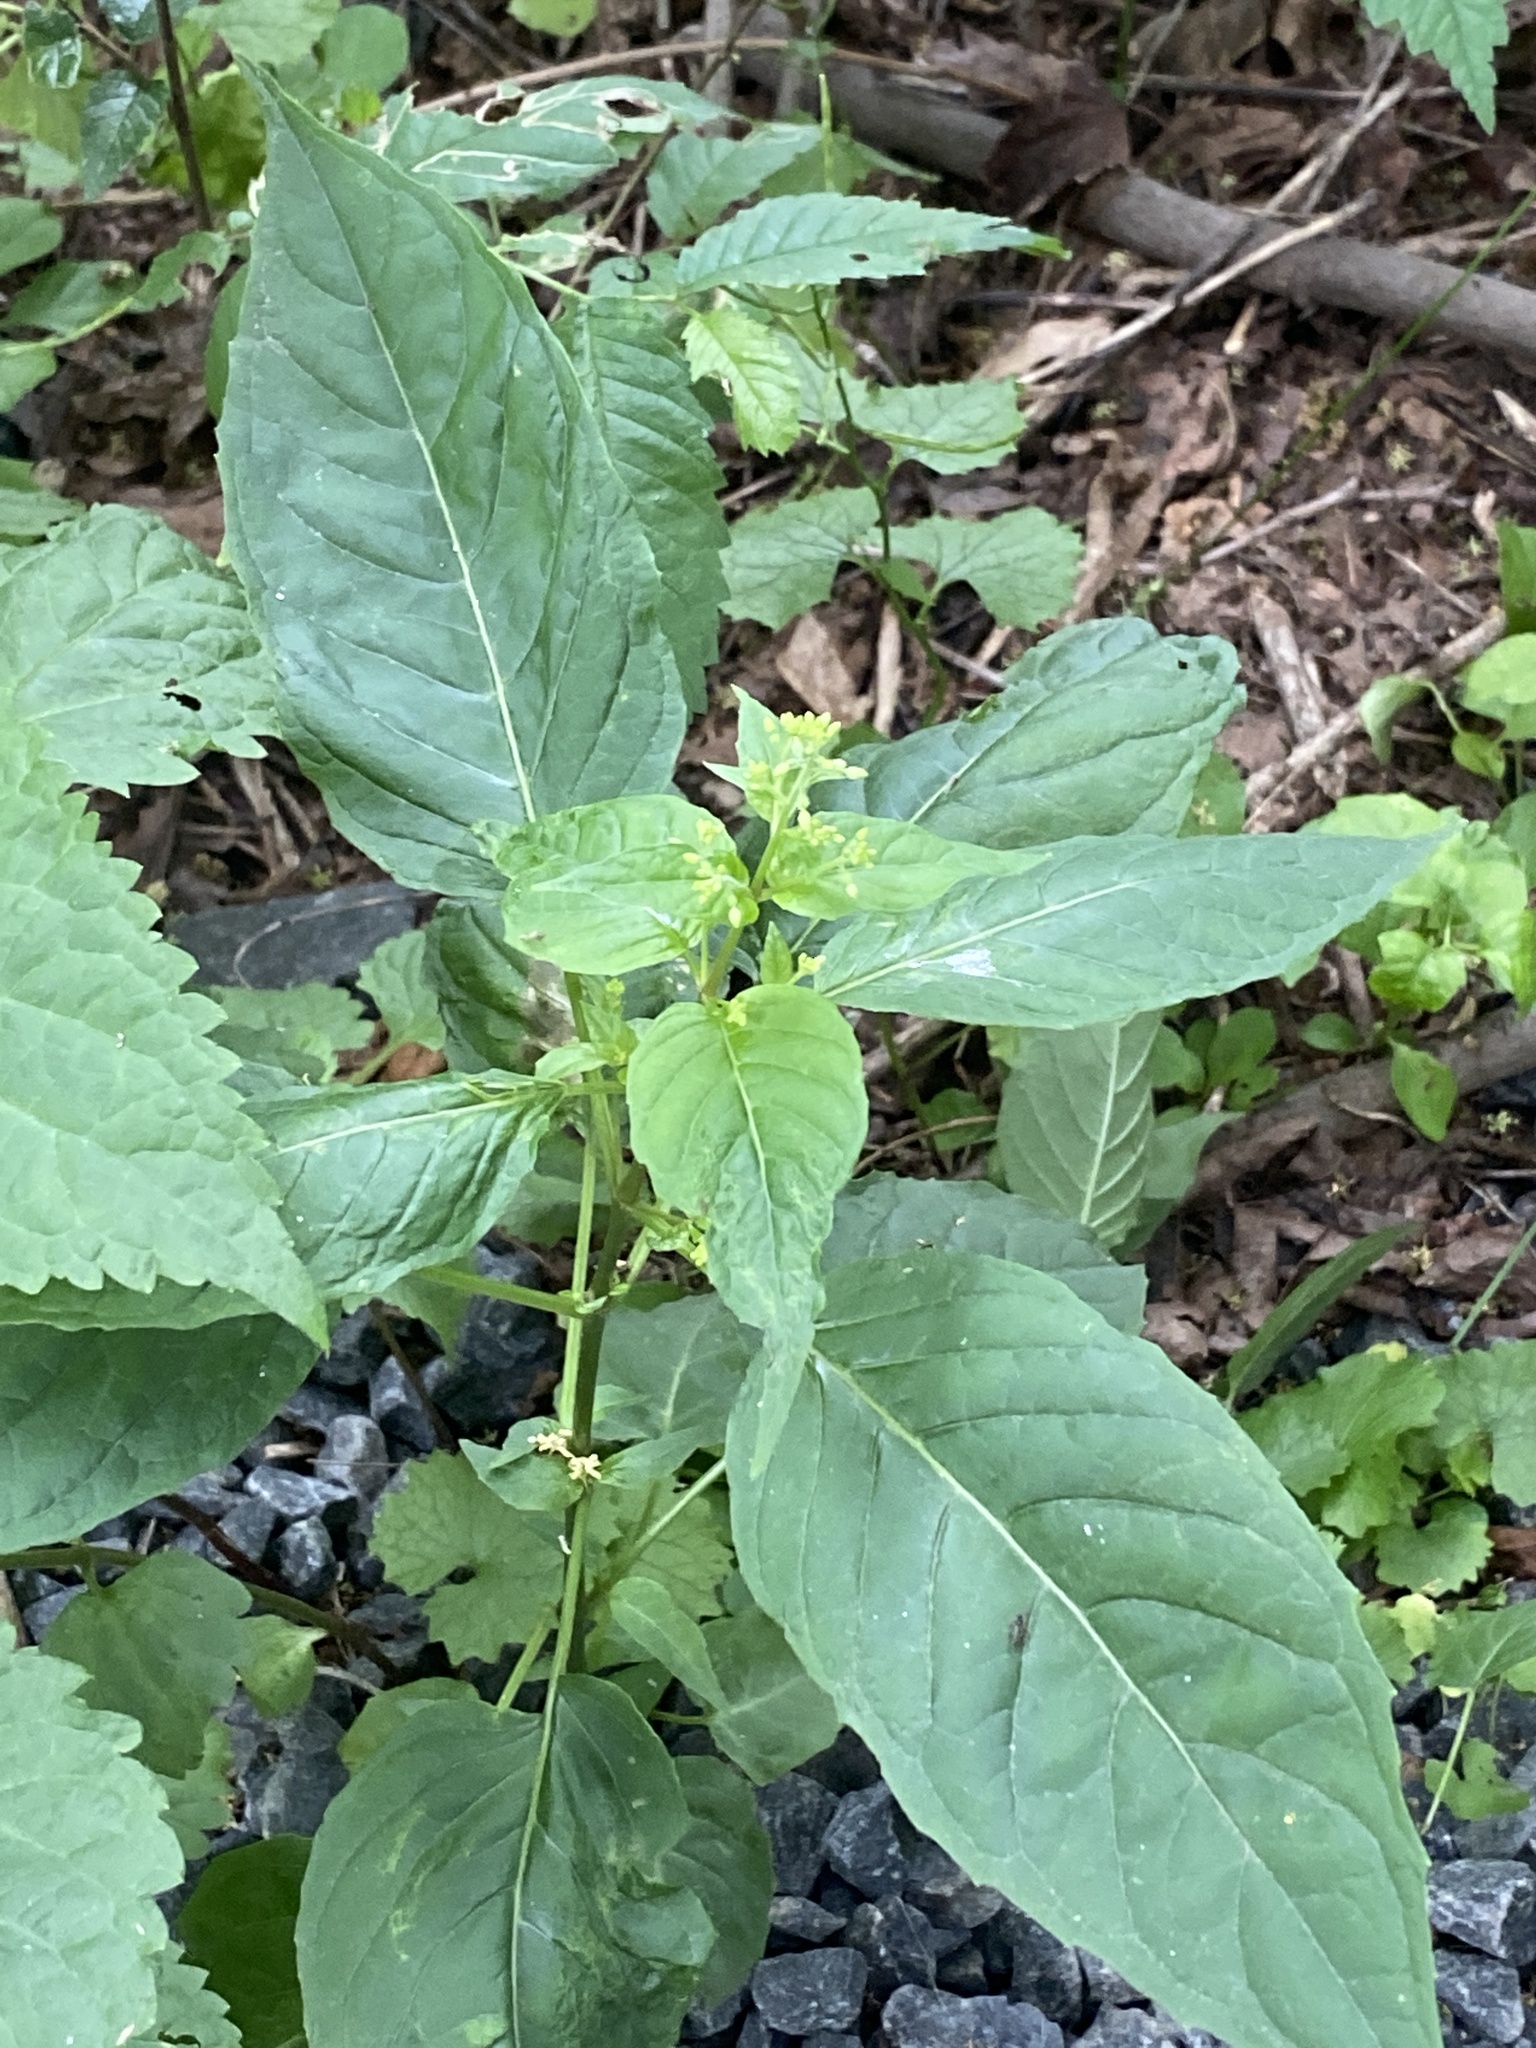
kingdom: Plantae
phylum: Tracheophyta
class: Magnoliopsida
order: Myrtales
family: Onagraceae
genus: Circaea
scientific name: Circaea canadensis
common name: Broad-leaved enchanter's nightshade
